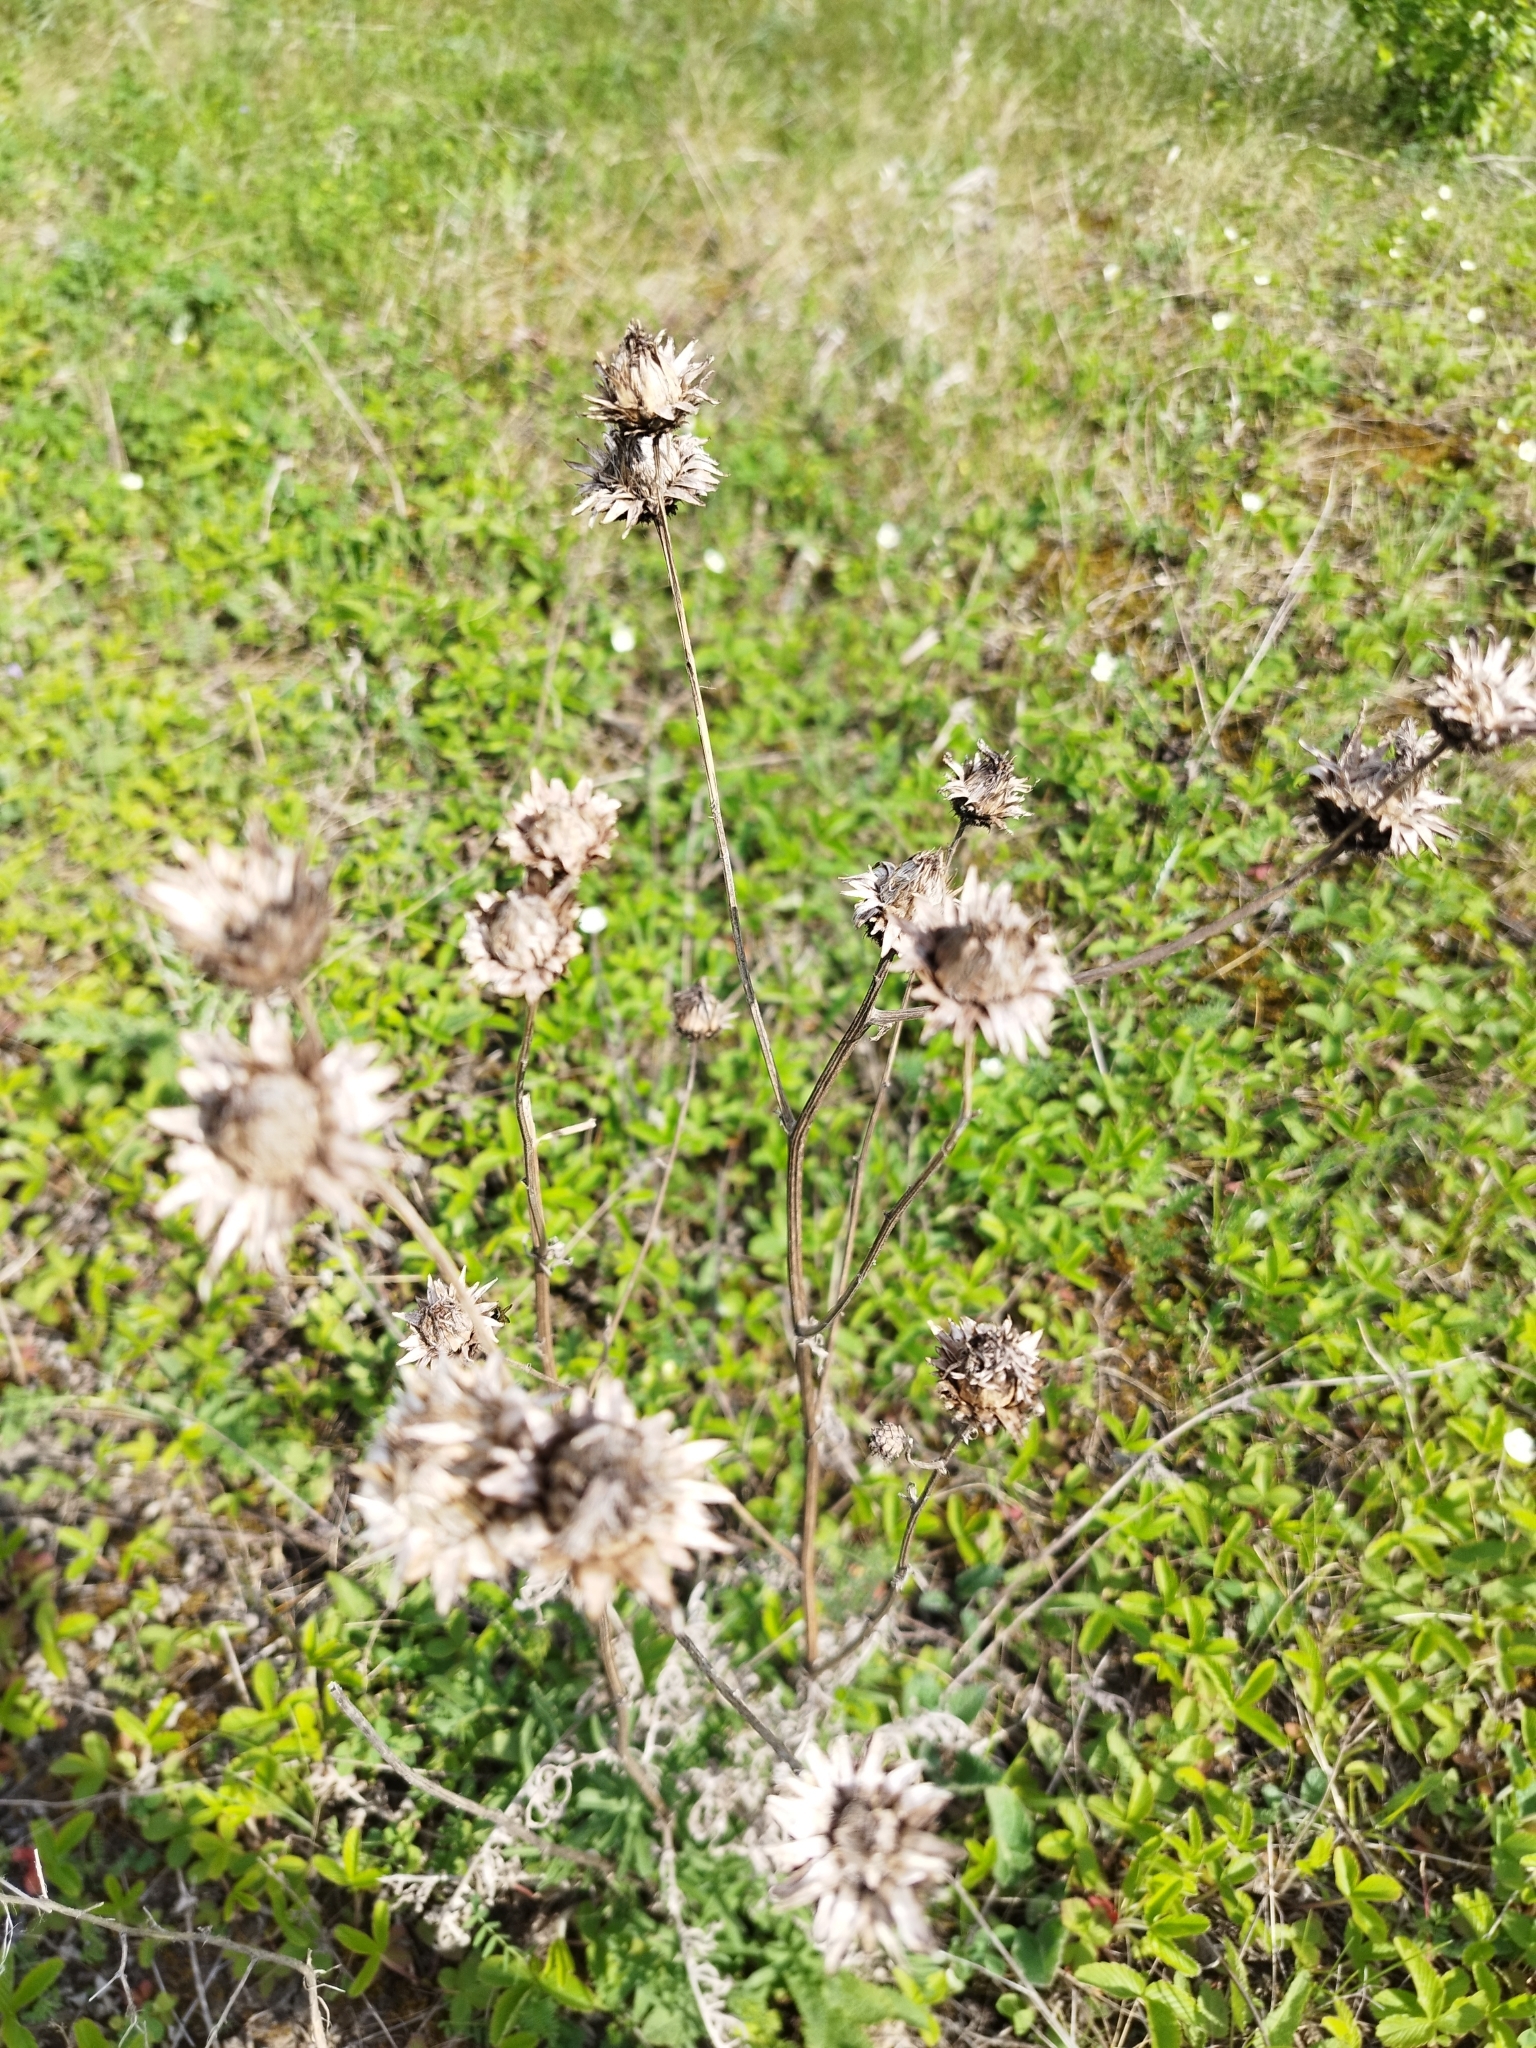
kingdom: Plantae
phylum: Tracheophyta
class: Magnoliopsida
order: Asterales
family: Asteraceae
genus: Centaurea
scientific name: Centaurea scabiosa
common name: Greater knapweed
